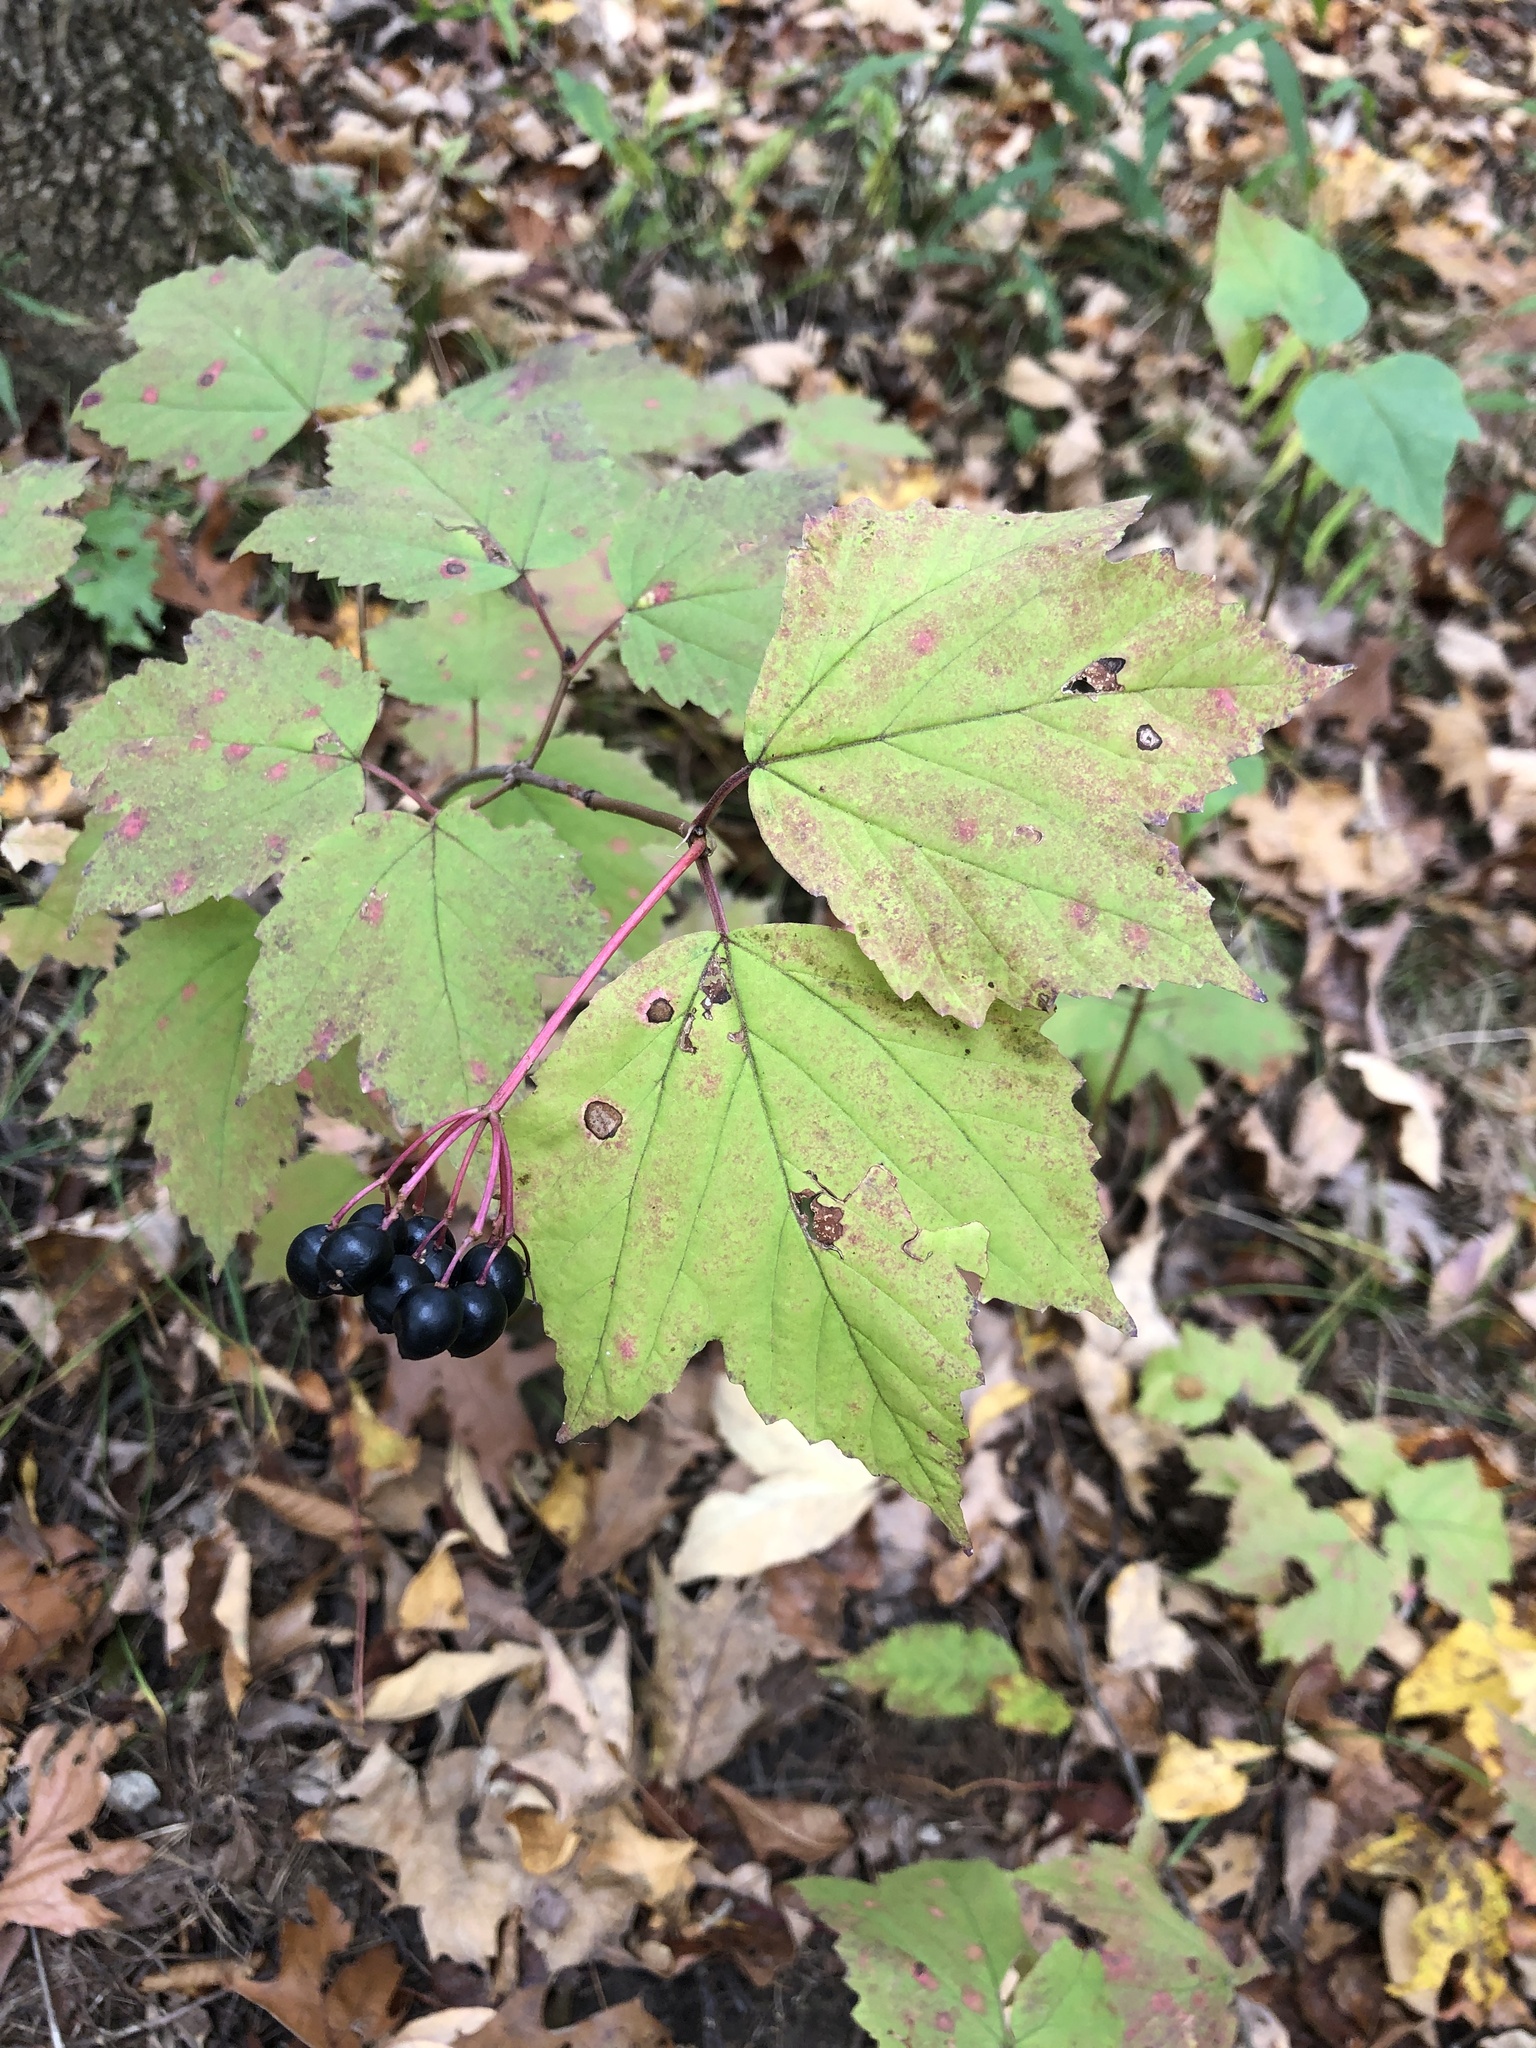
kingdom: Plantae
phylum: Tracheophyta
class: Magnoliopsida
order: Dipsacales
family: Viburnaceae
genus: Viburnum
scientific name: Viburnum acerifolium
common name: Dockmackie
